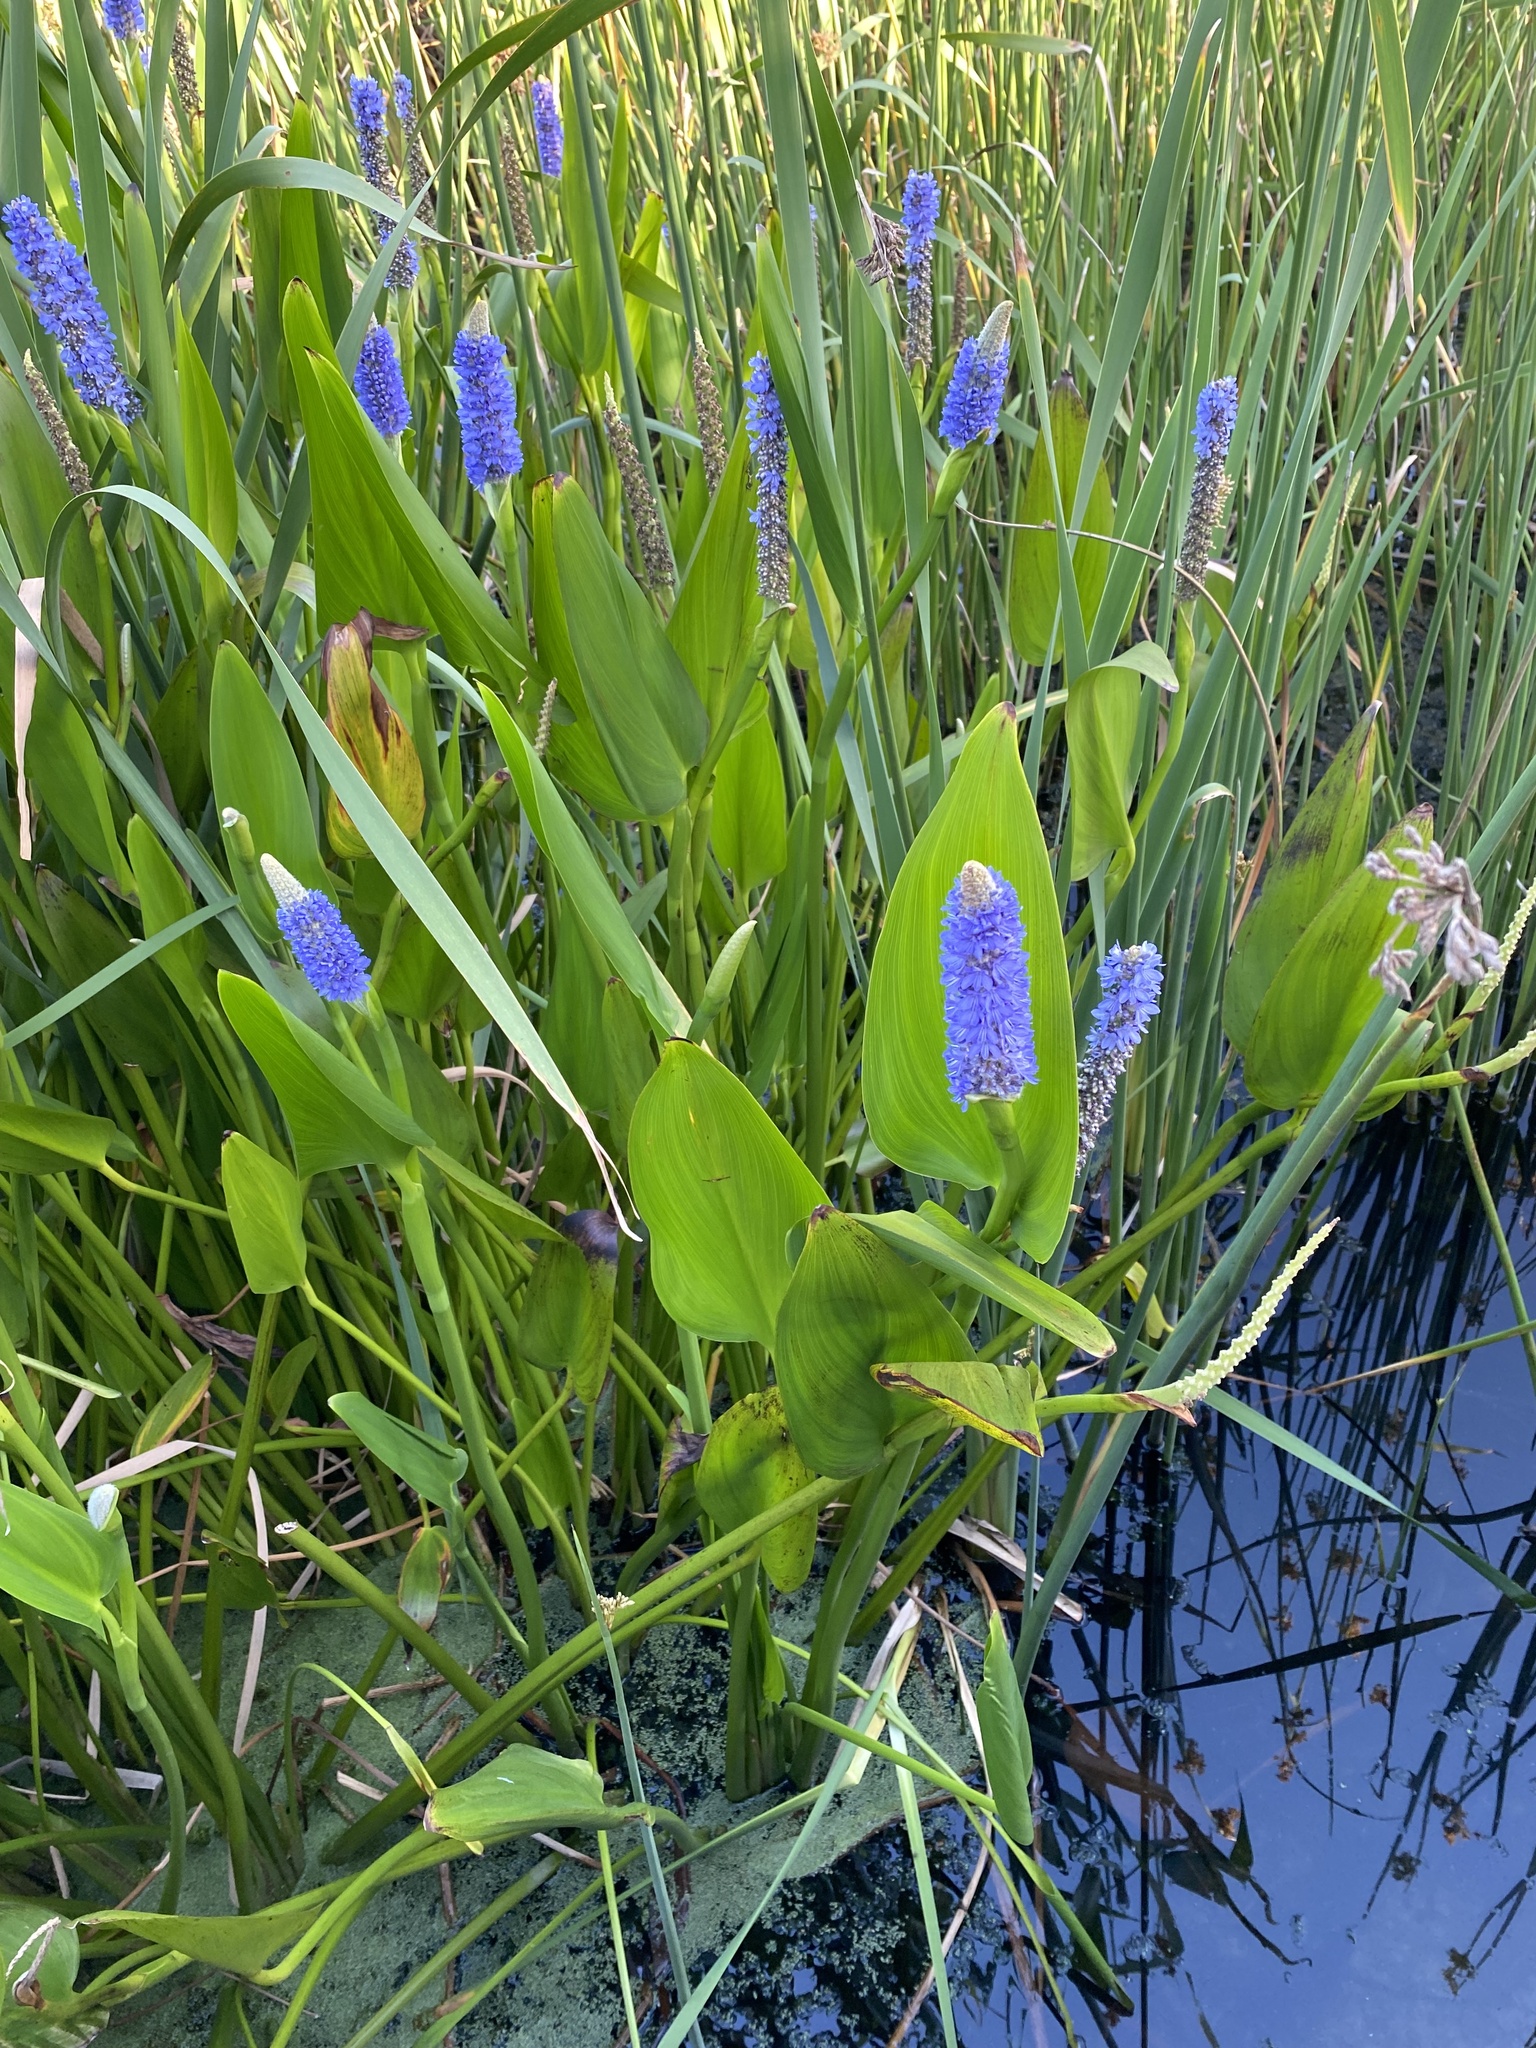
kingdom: Plantae
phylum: Tracheophyta
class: Liliopsida
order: Commelinales
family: Pontederiaceae
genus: Pontederia
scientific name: Pontederia cordata
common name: Pickerelweed
